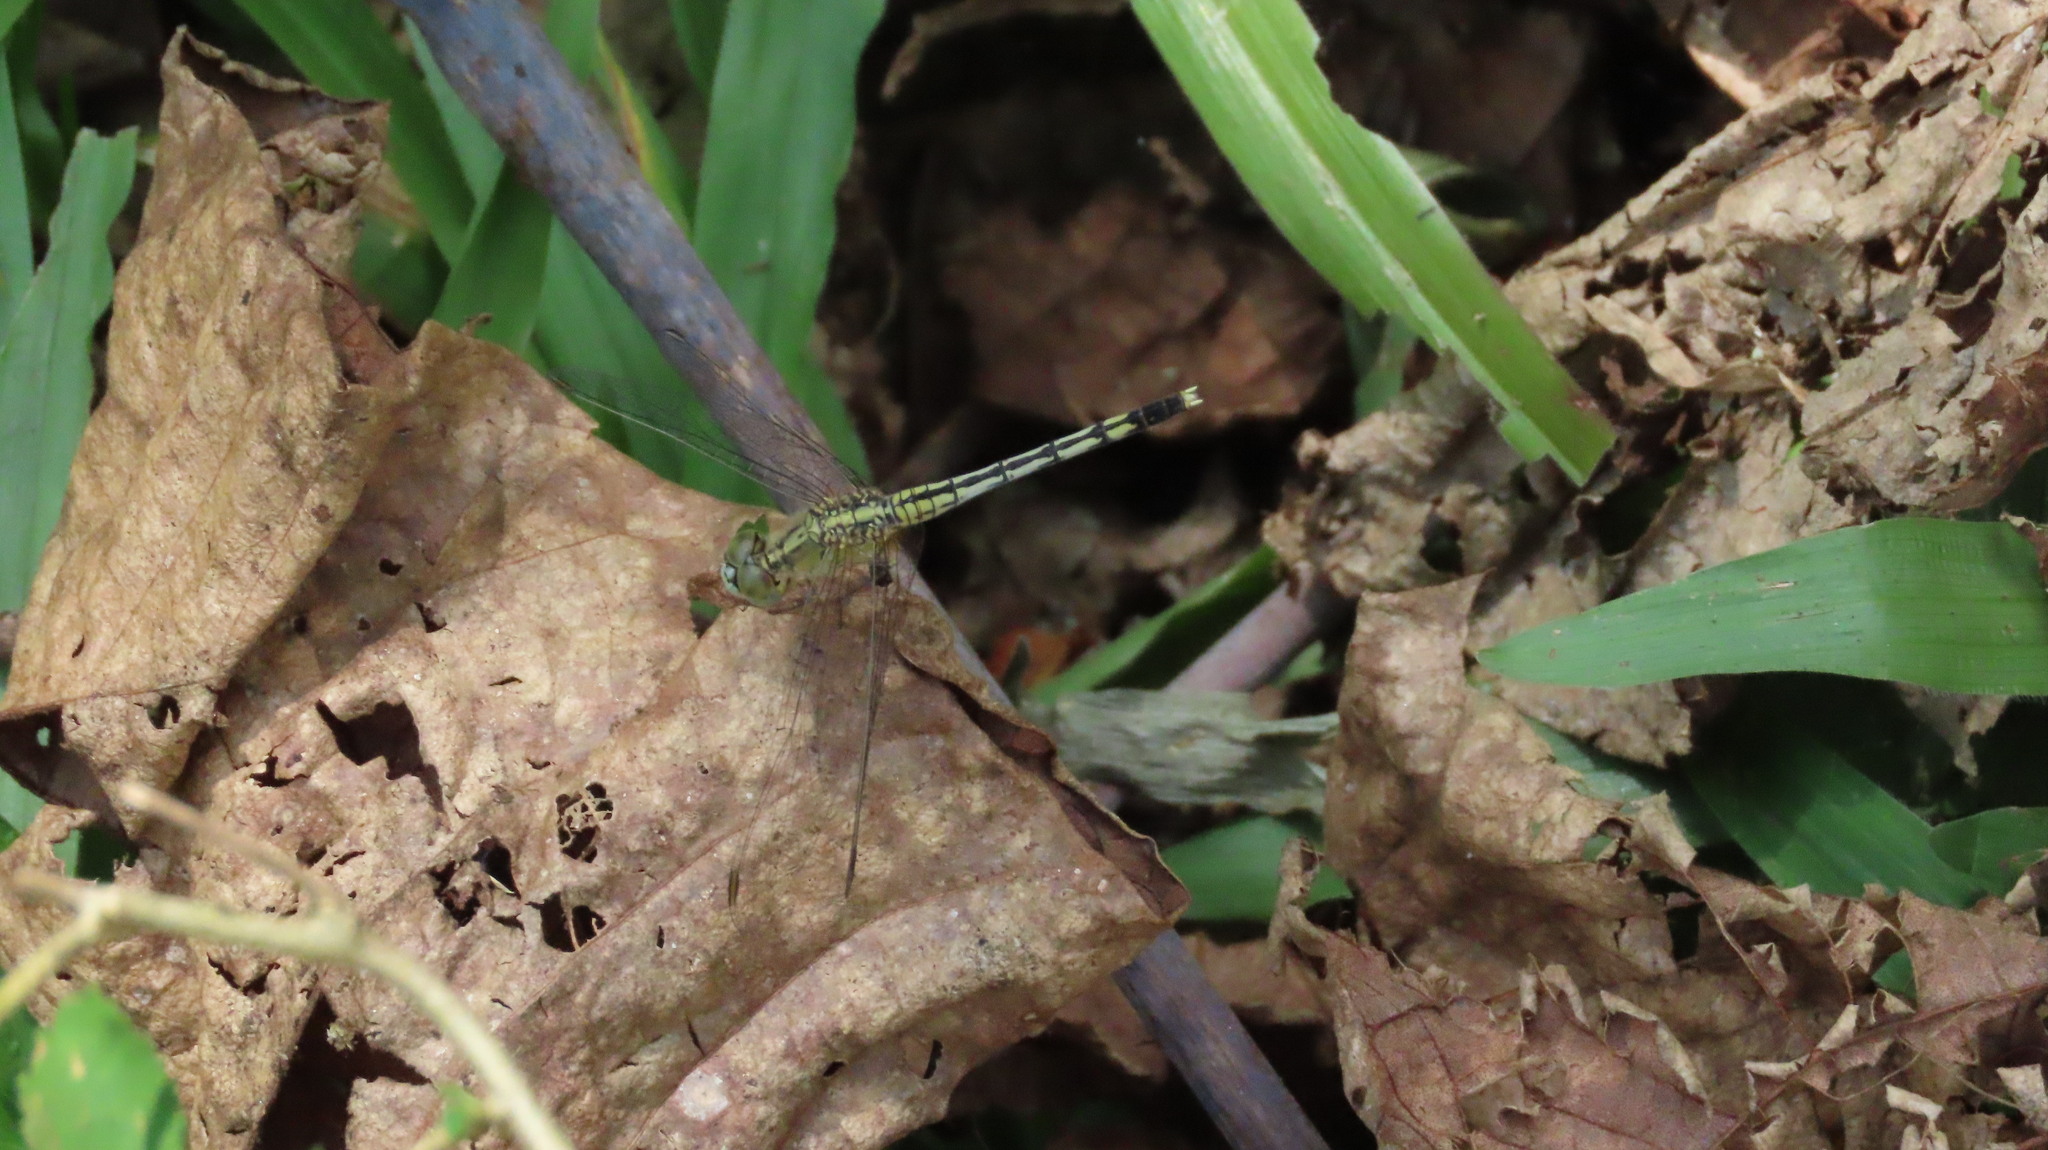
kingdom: Animalia
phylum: Arthropoda
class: Insecta
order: Odonata
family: Libellulidae
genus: Diplacodes
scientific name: Diplacodes trivialis
